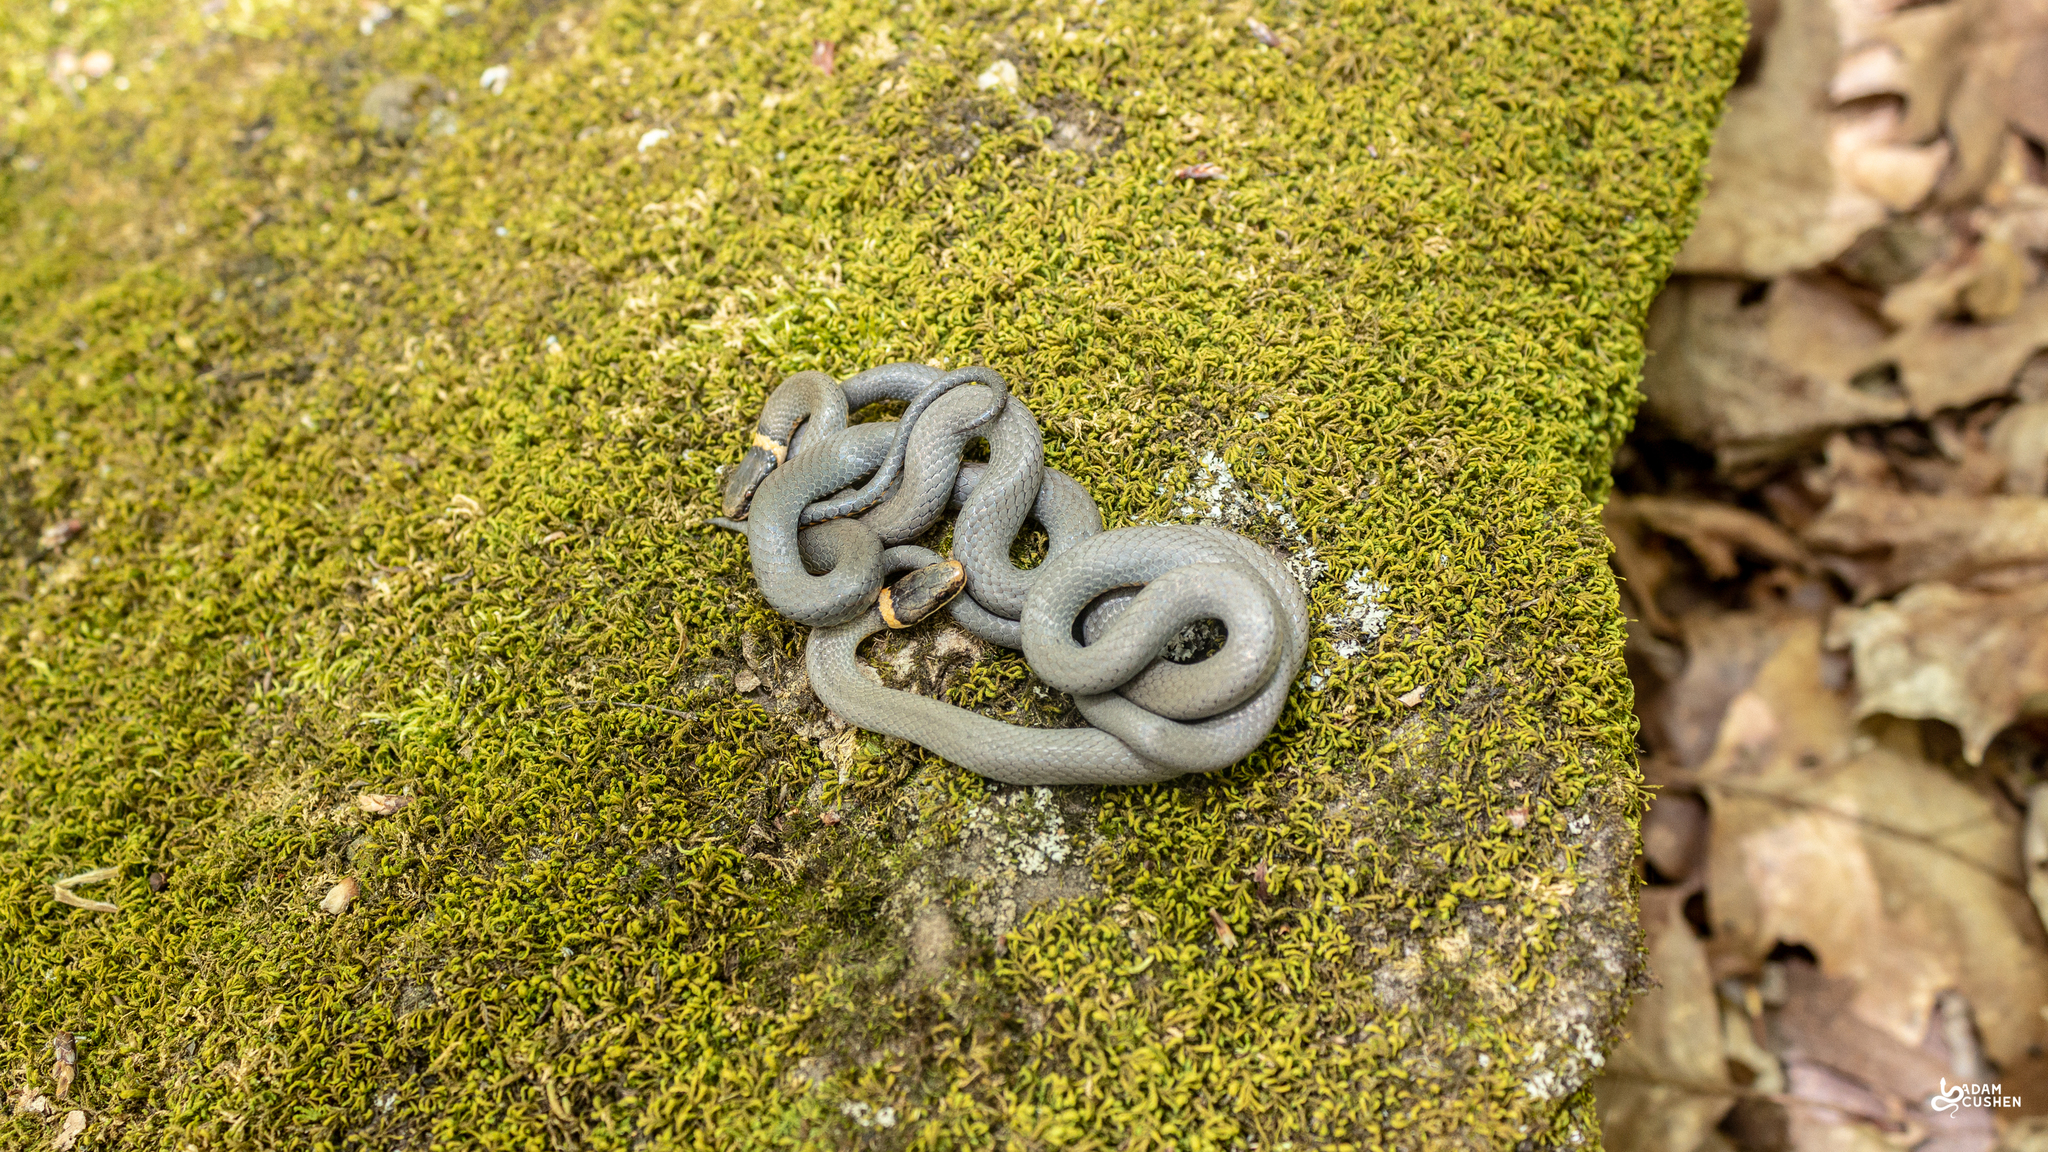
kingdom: Animalia
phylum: Chordata
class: Squamata
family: Colubridae
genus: Diadophis
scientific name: Diadophis punctatus
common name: Ringneck snake
